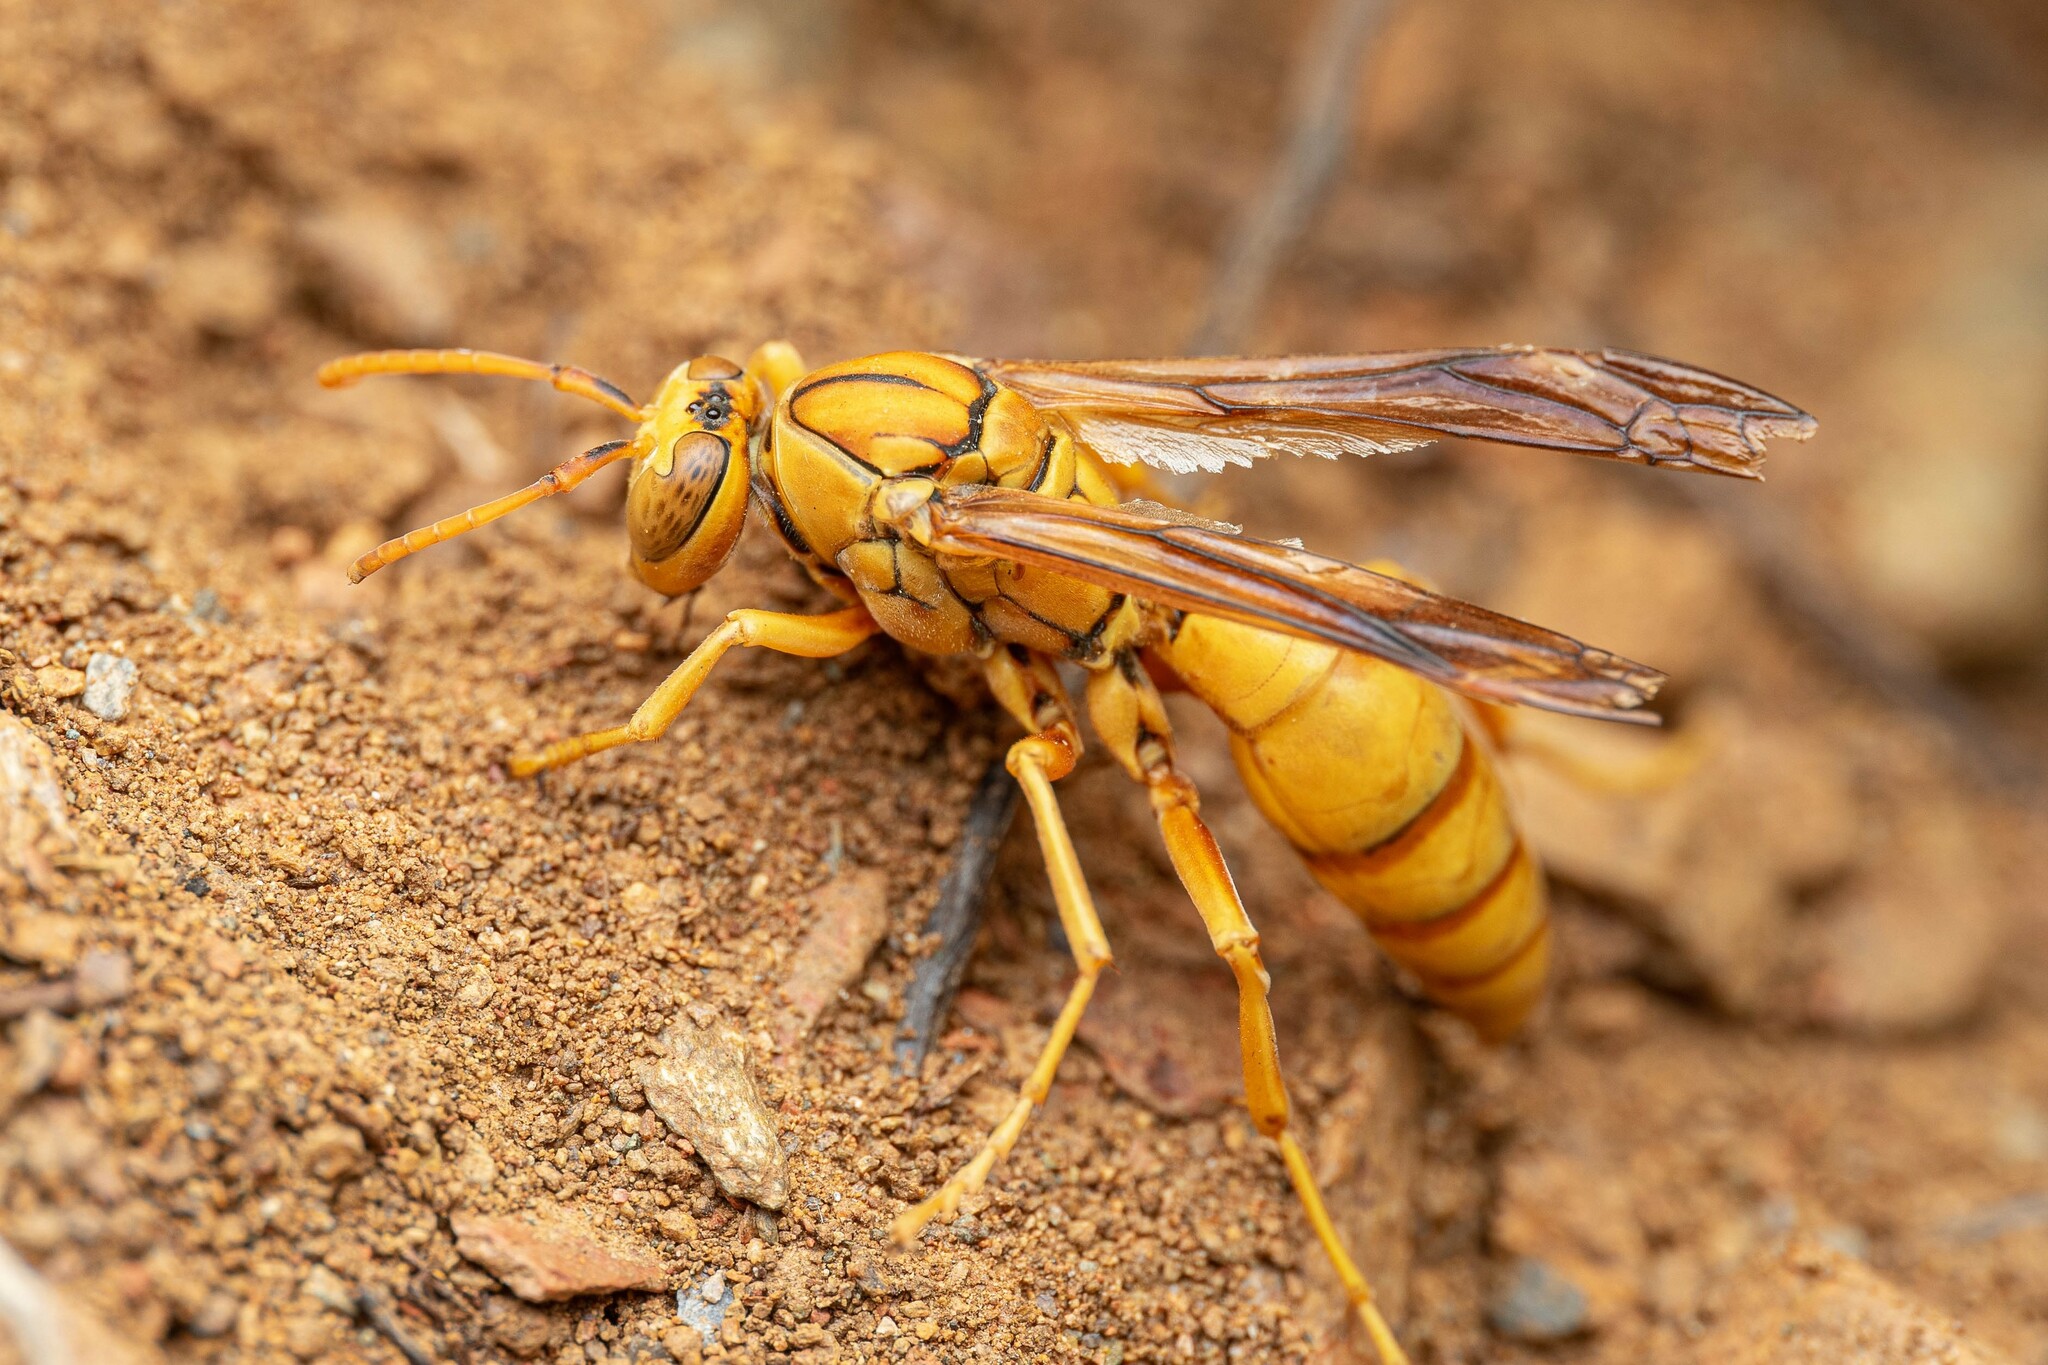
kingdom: Animalia
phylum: Arthropoda
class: Insecta
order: Hymenoptera
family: Eumenidae
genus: Polistes
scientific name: Polistes flavus
